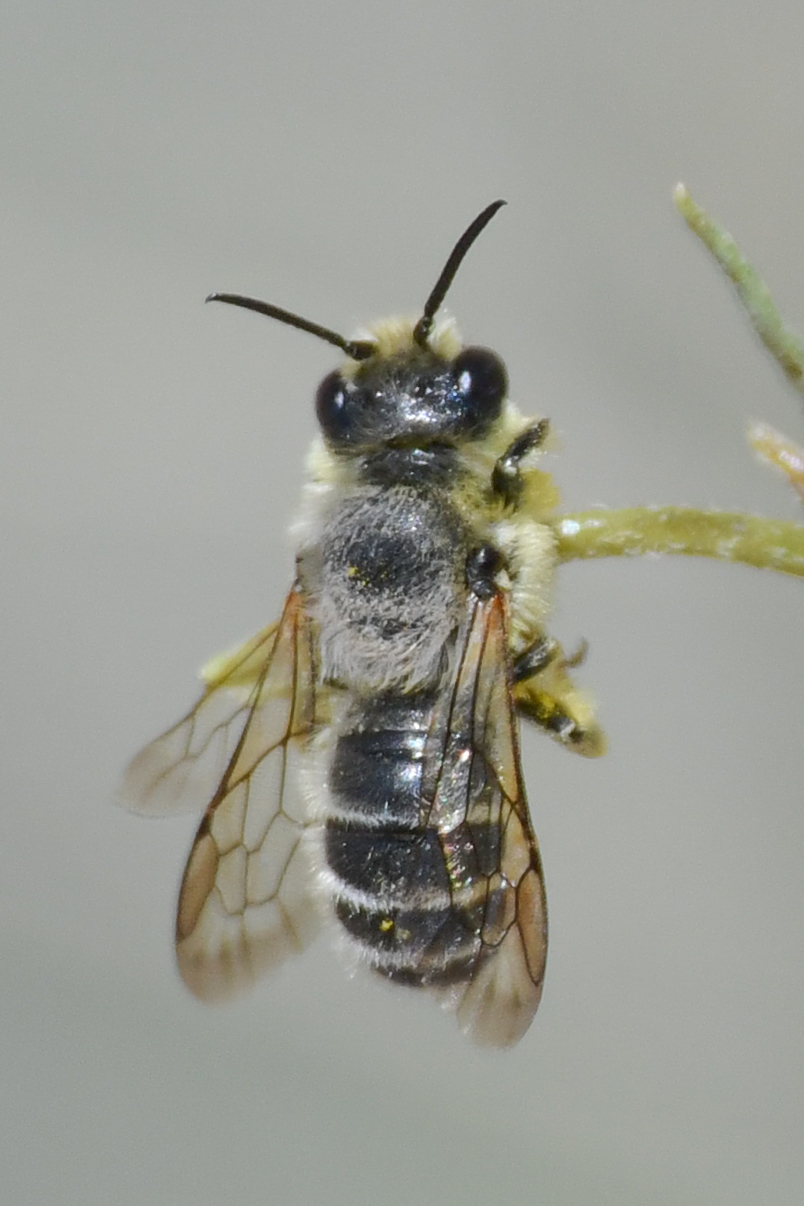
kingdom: Animalia
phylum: Arthropoda
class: Insecta
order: Hymenoptera
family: Megachilidae
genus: Hoplitis
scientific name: Hoplitis biscutellae
